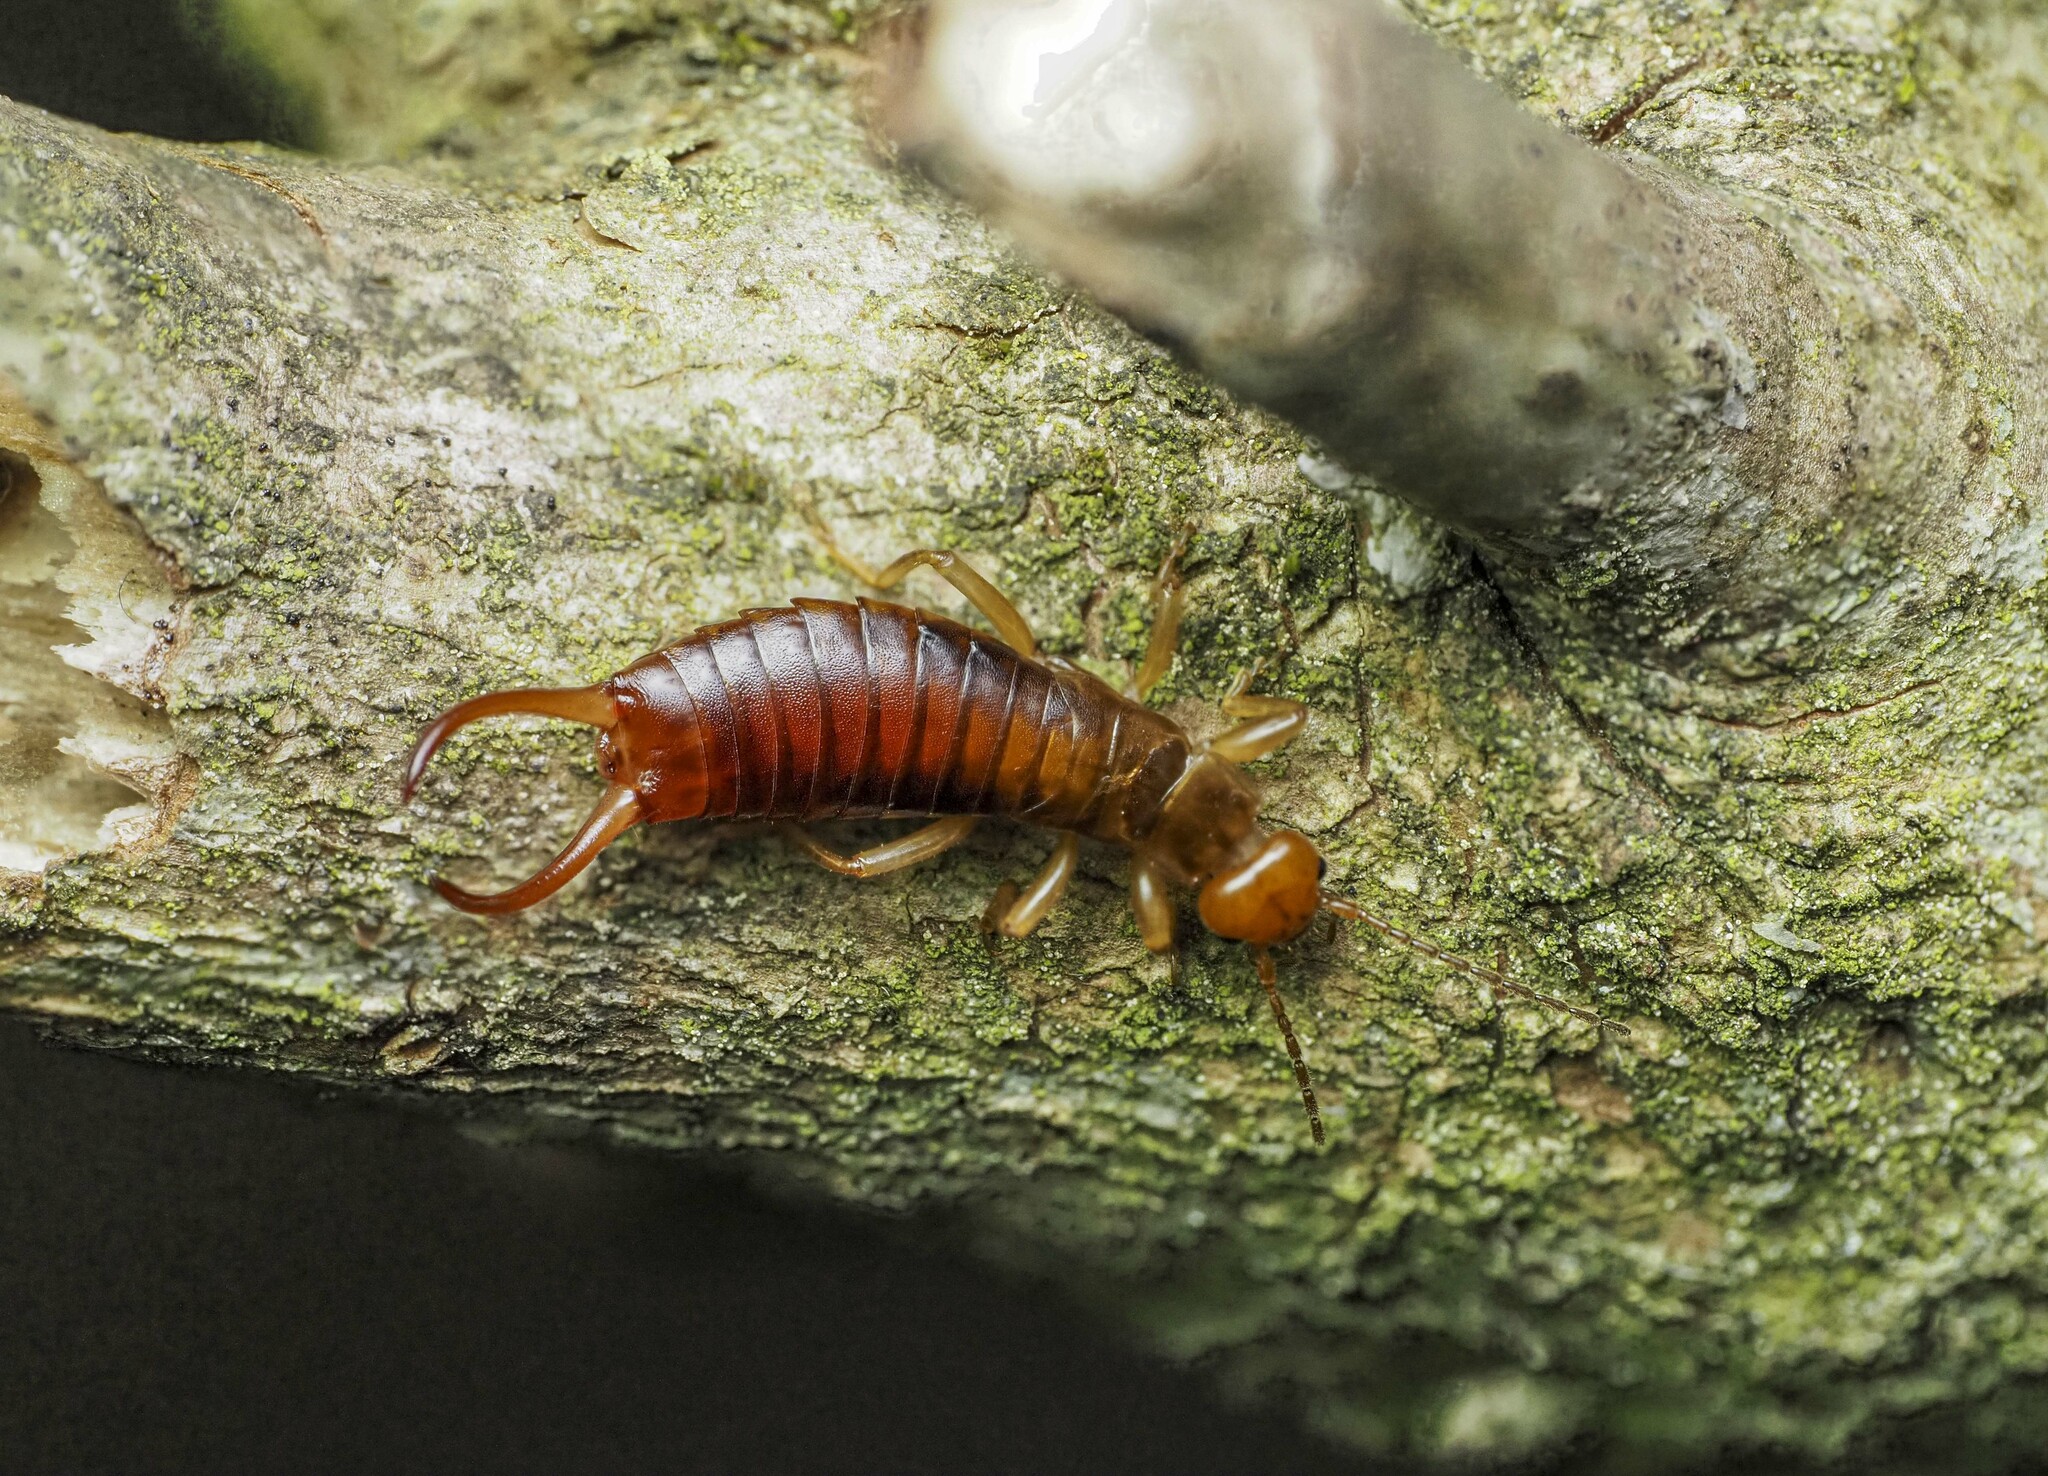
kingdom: Animalia
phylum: Arthropoda
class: Insecta
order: Dermaptera
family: Forficulidae
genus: Chelidurella
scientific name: Chelidurella acanthopygia
